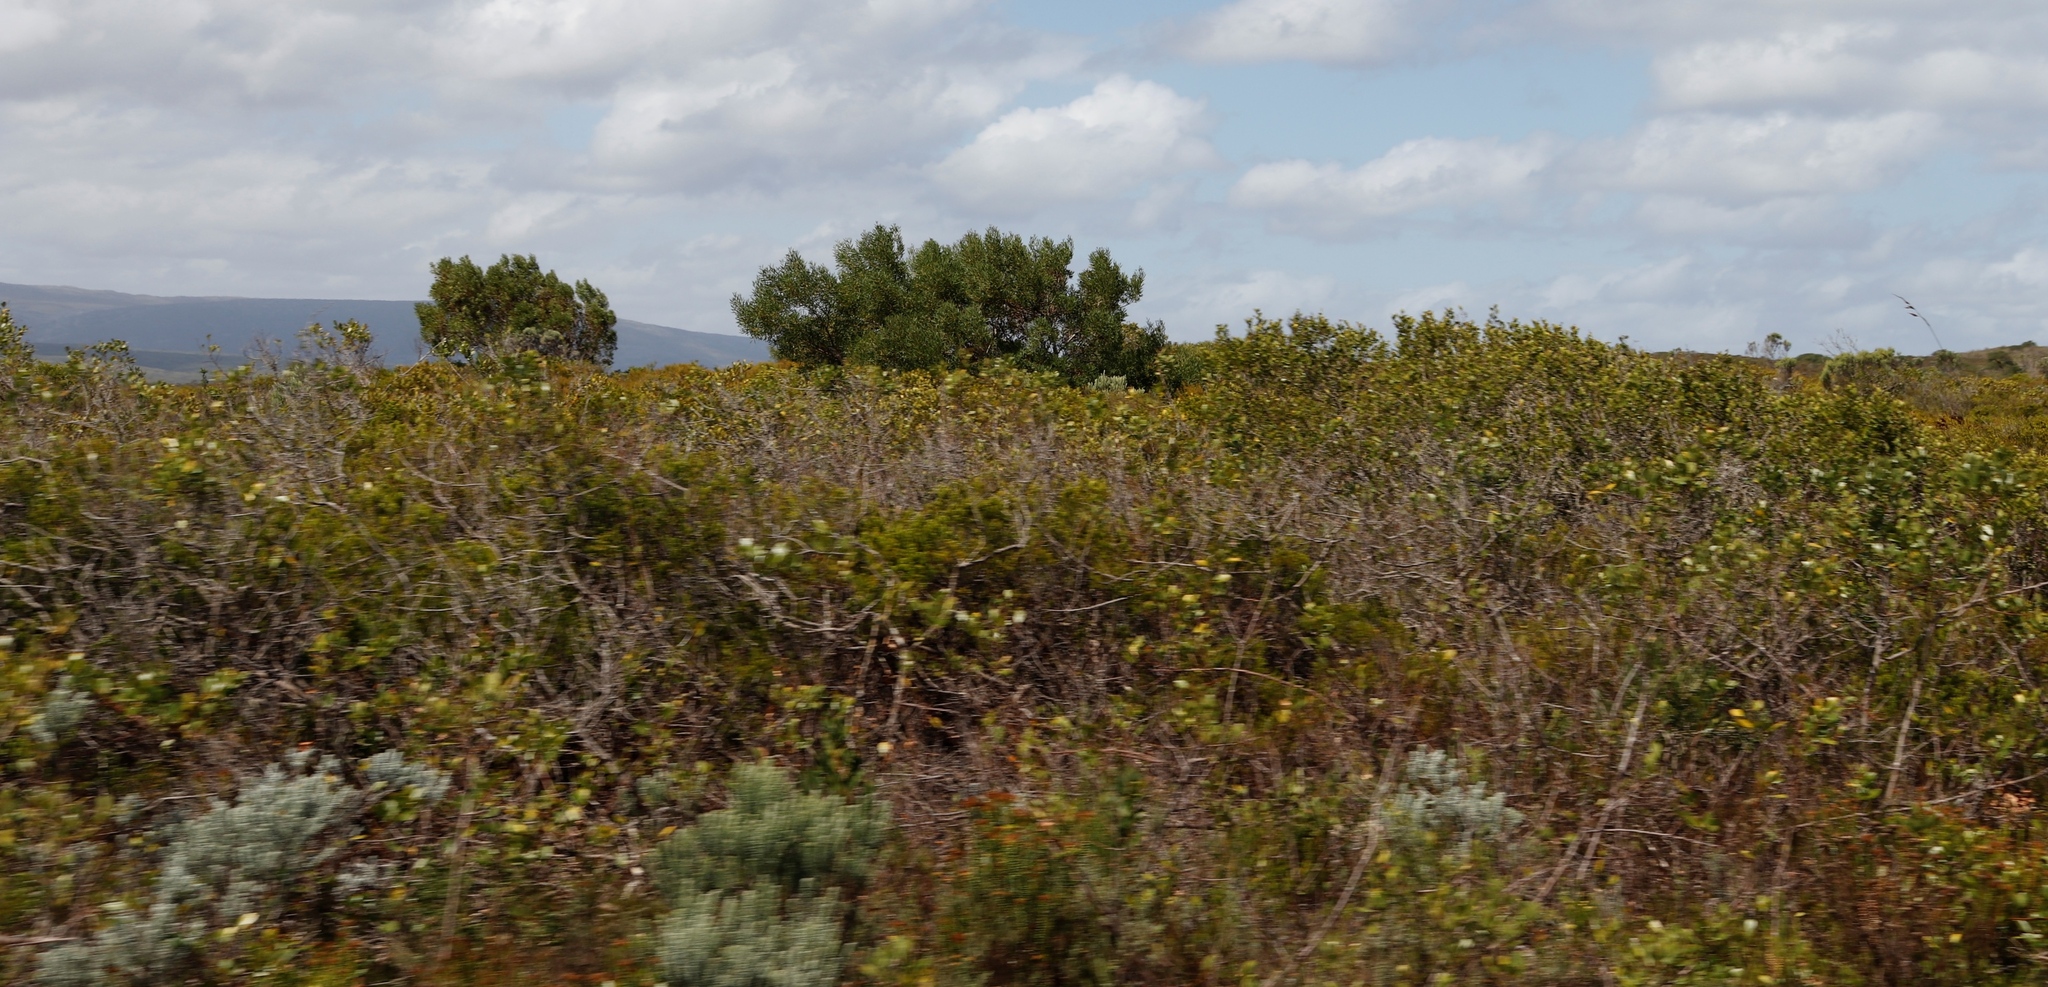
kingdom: Plantae
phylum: Tracheophyta
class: Magnoliopsida
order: Fabales
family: Fabaceae
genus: Acacia
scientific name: Acacia cyclops
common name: Coastal wattle
